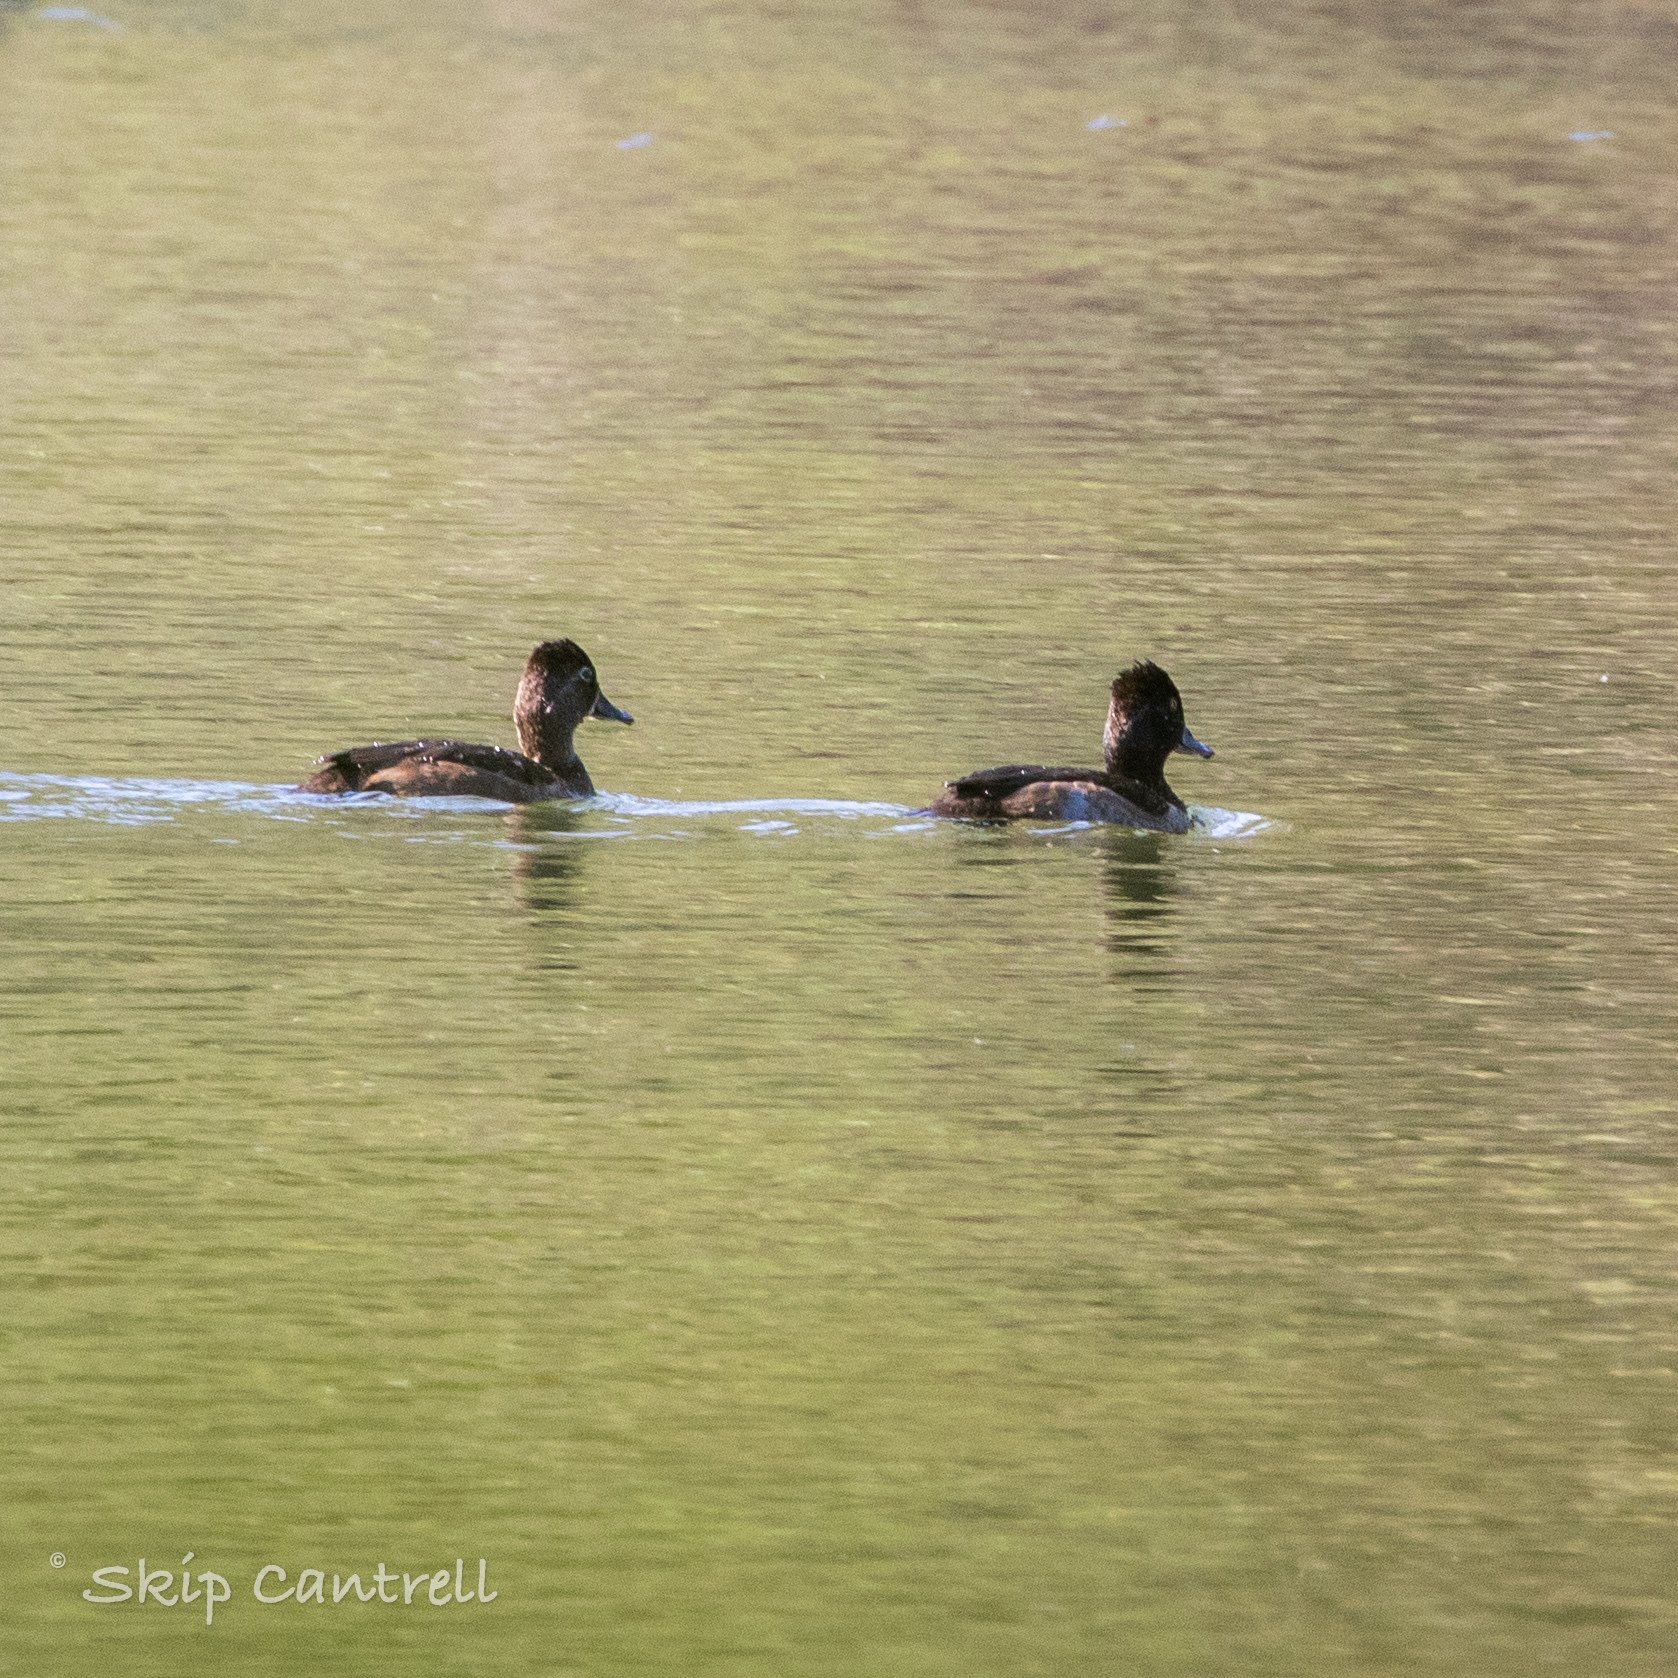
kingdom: Animalia
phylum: Chordata
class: Aves
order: Anseriformes
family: Anatidae
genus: Aythya
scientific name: Aythya collaris
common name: Ring-necked duck
